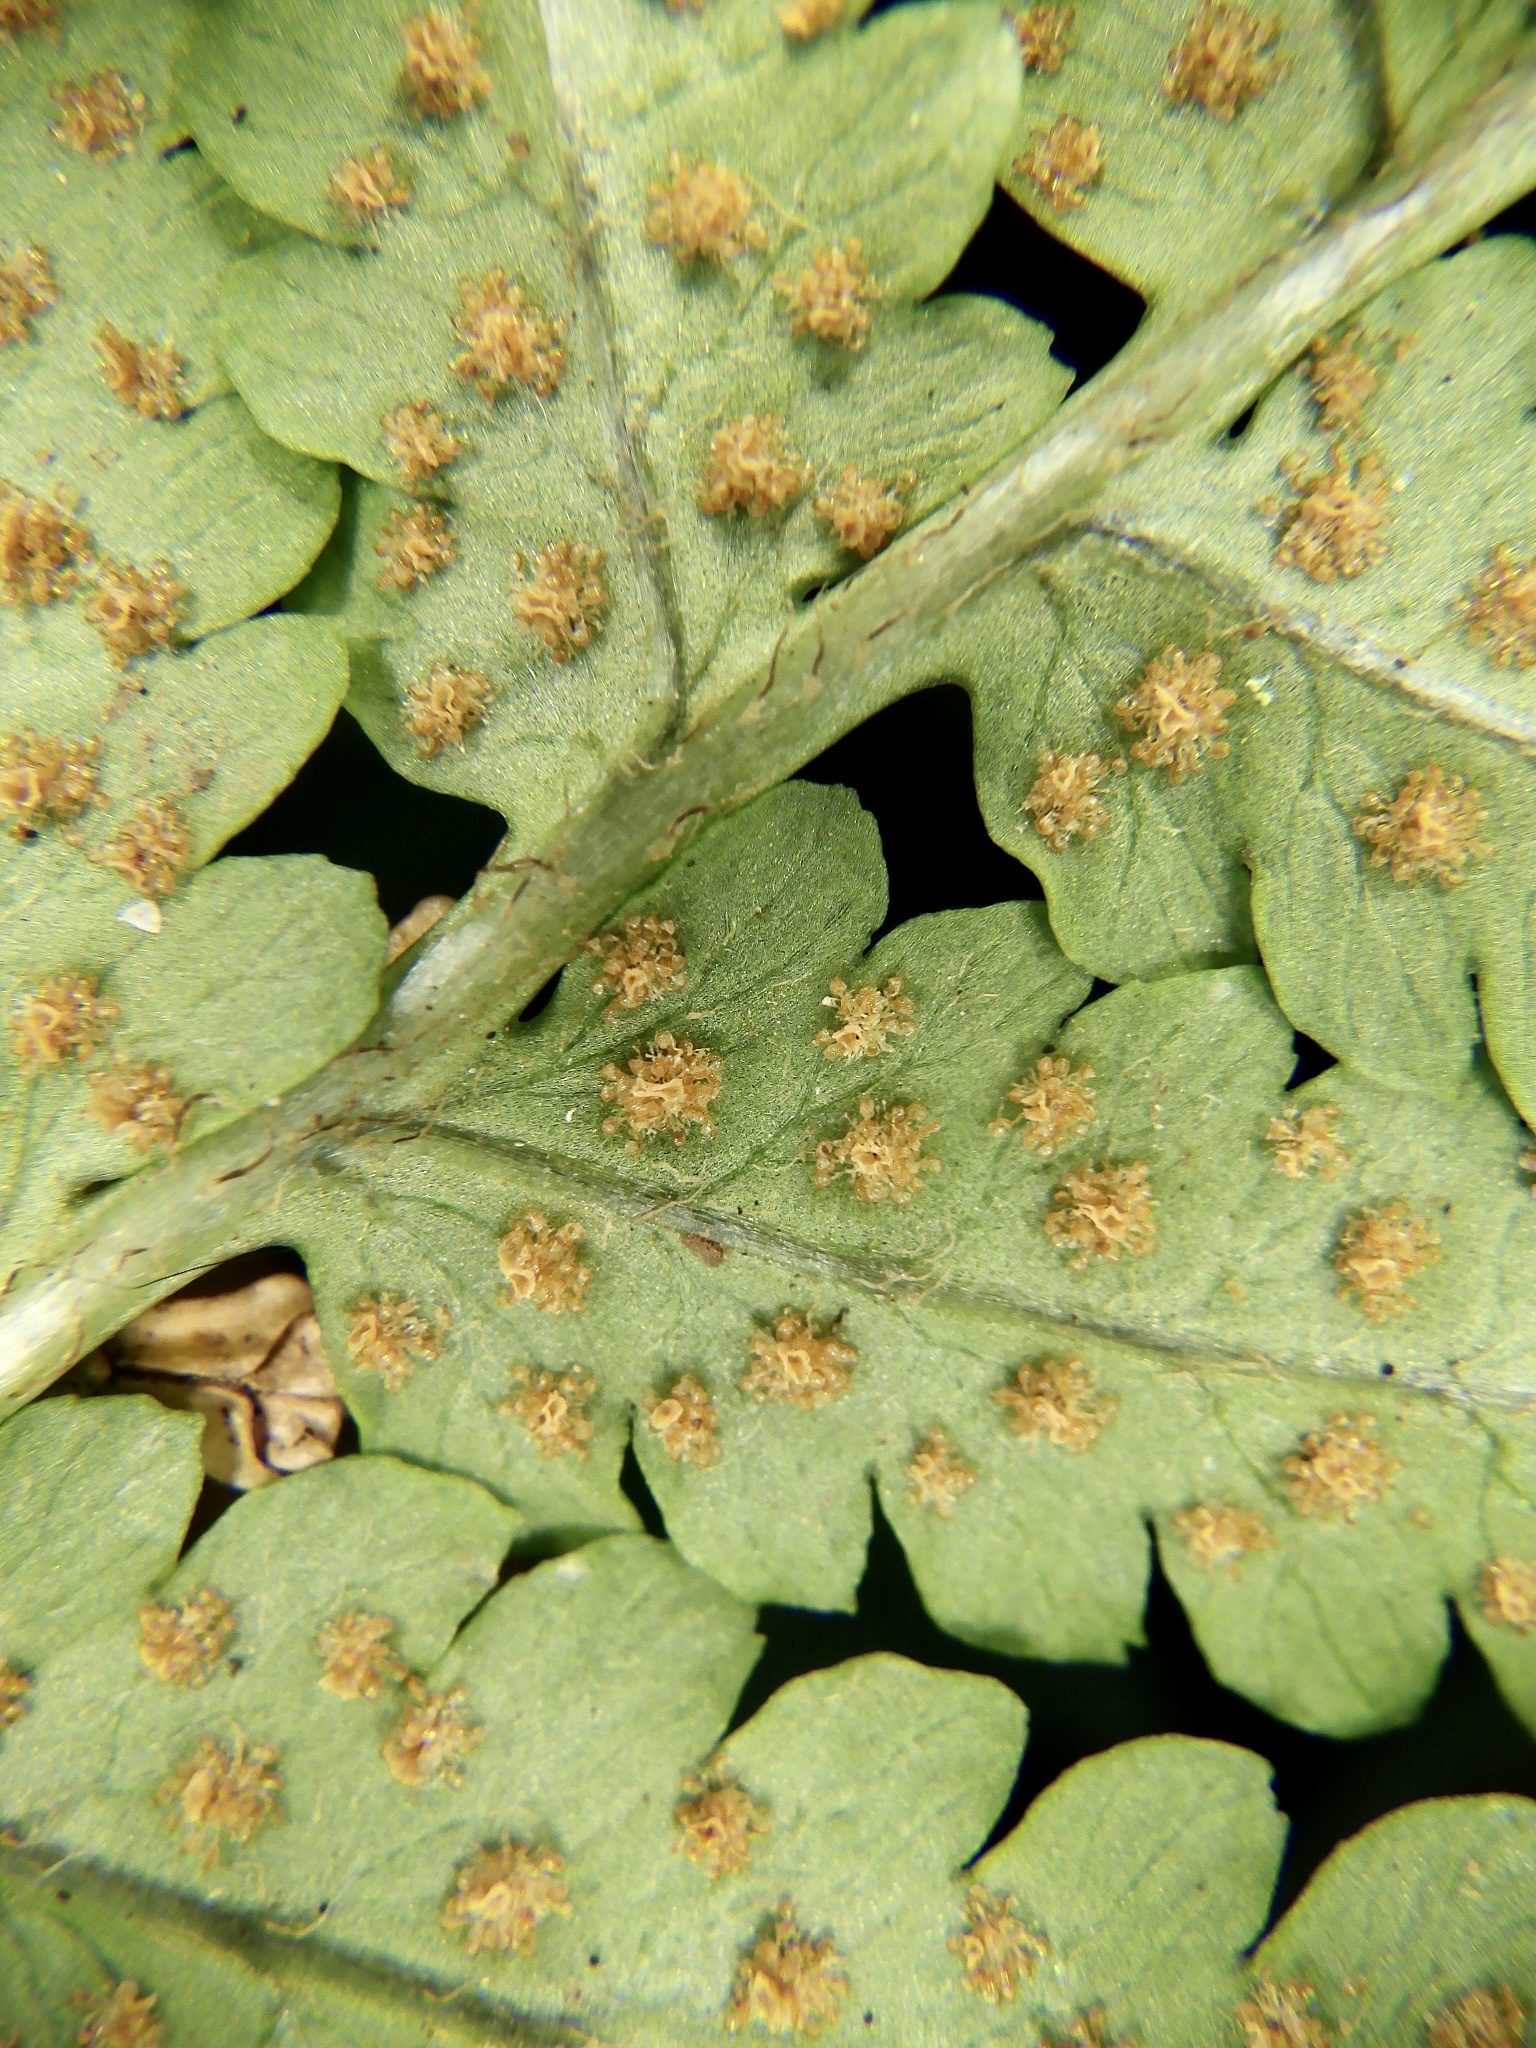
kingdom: Plantae
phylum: Tracheophyta
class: Polypodiopsida
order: Polypodiales
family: Dryopteridaceae
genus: Dryopteris
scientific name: Dryopteris uniformis
